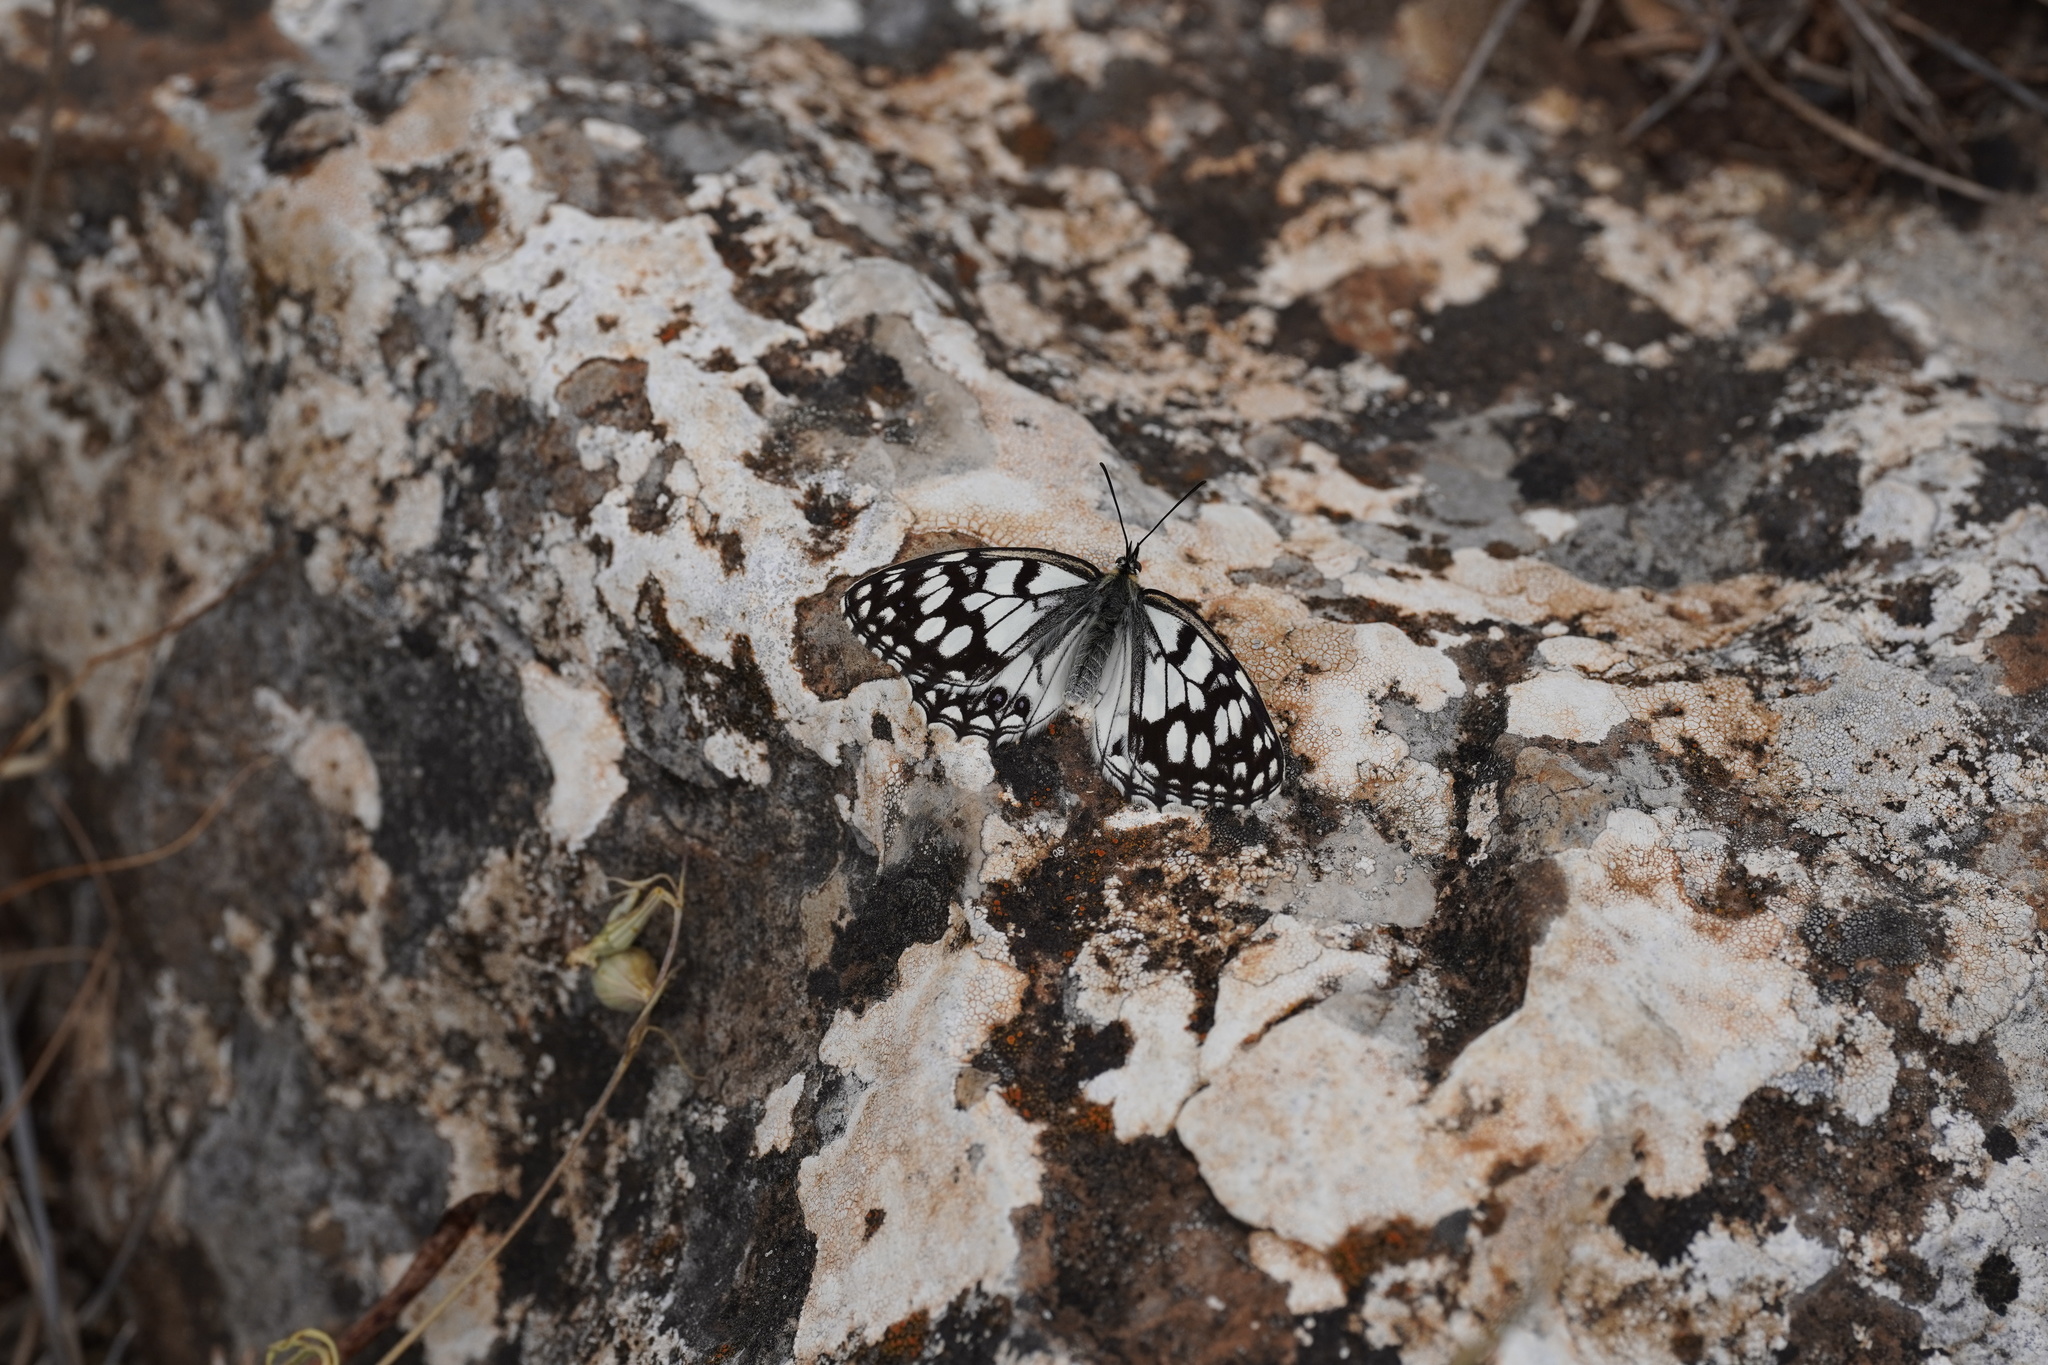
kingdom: Animalia
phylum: Arthropoda
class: Insecta
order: Lepidoptera
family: Nymphalidae
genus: Melanargia
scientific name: Melanargia ines
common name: Spanish marbled white
